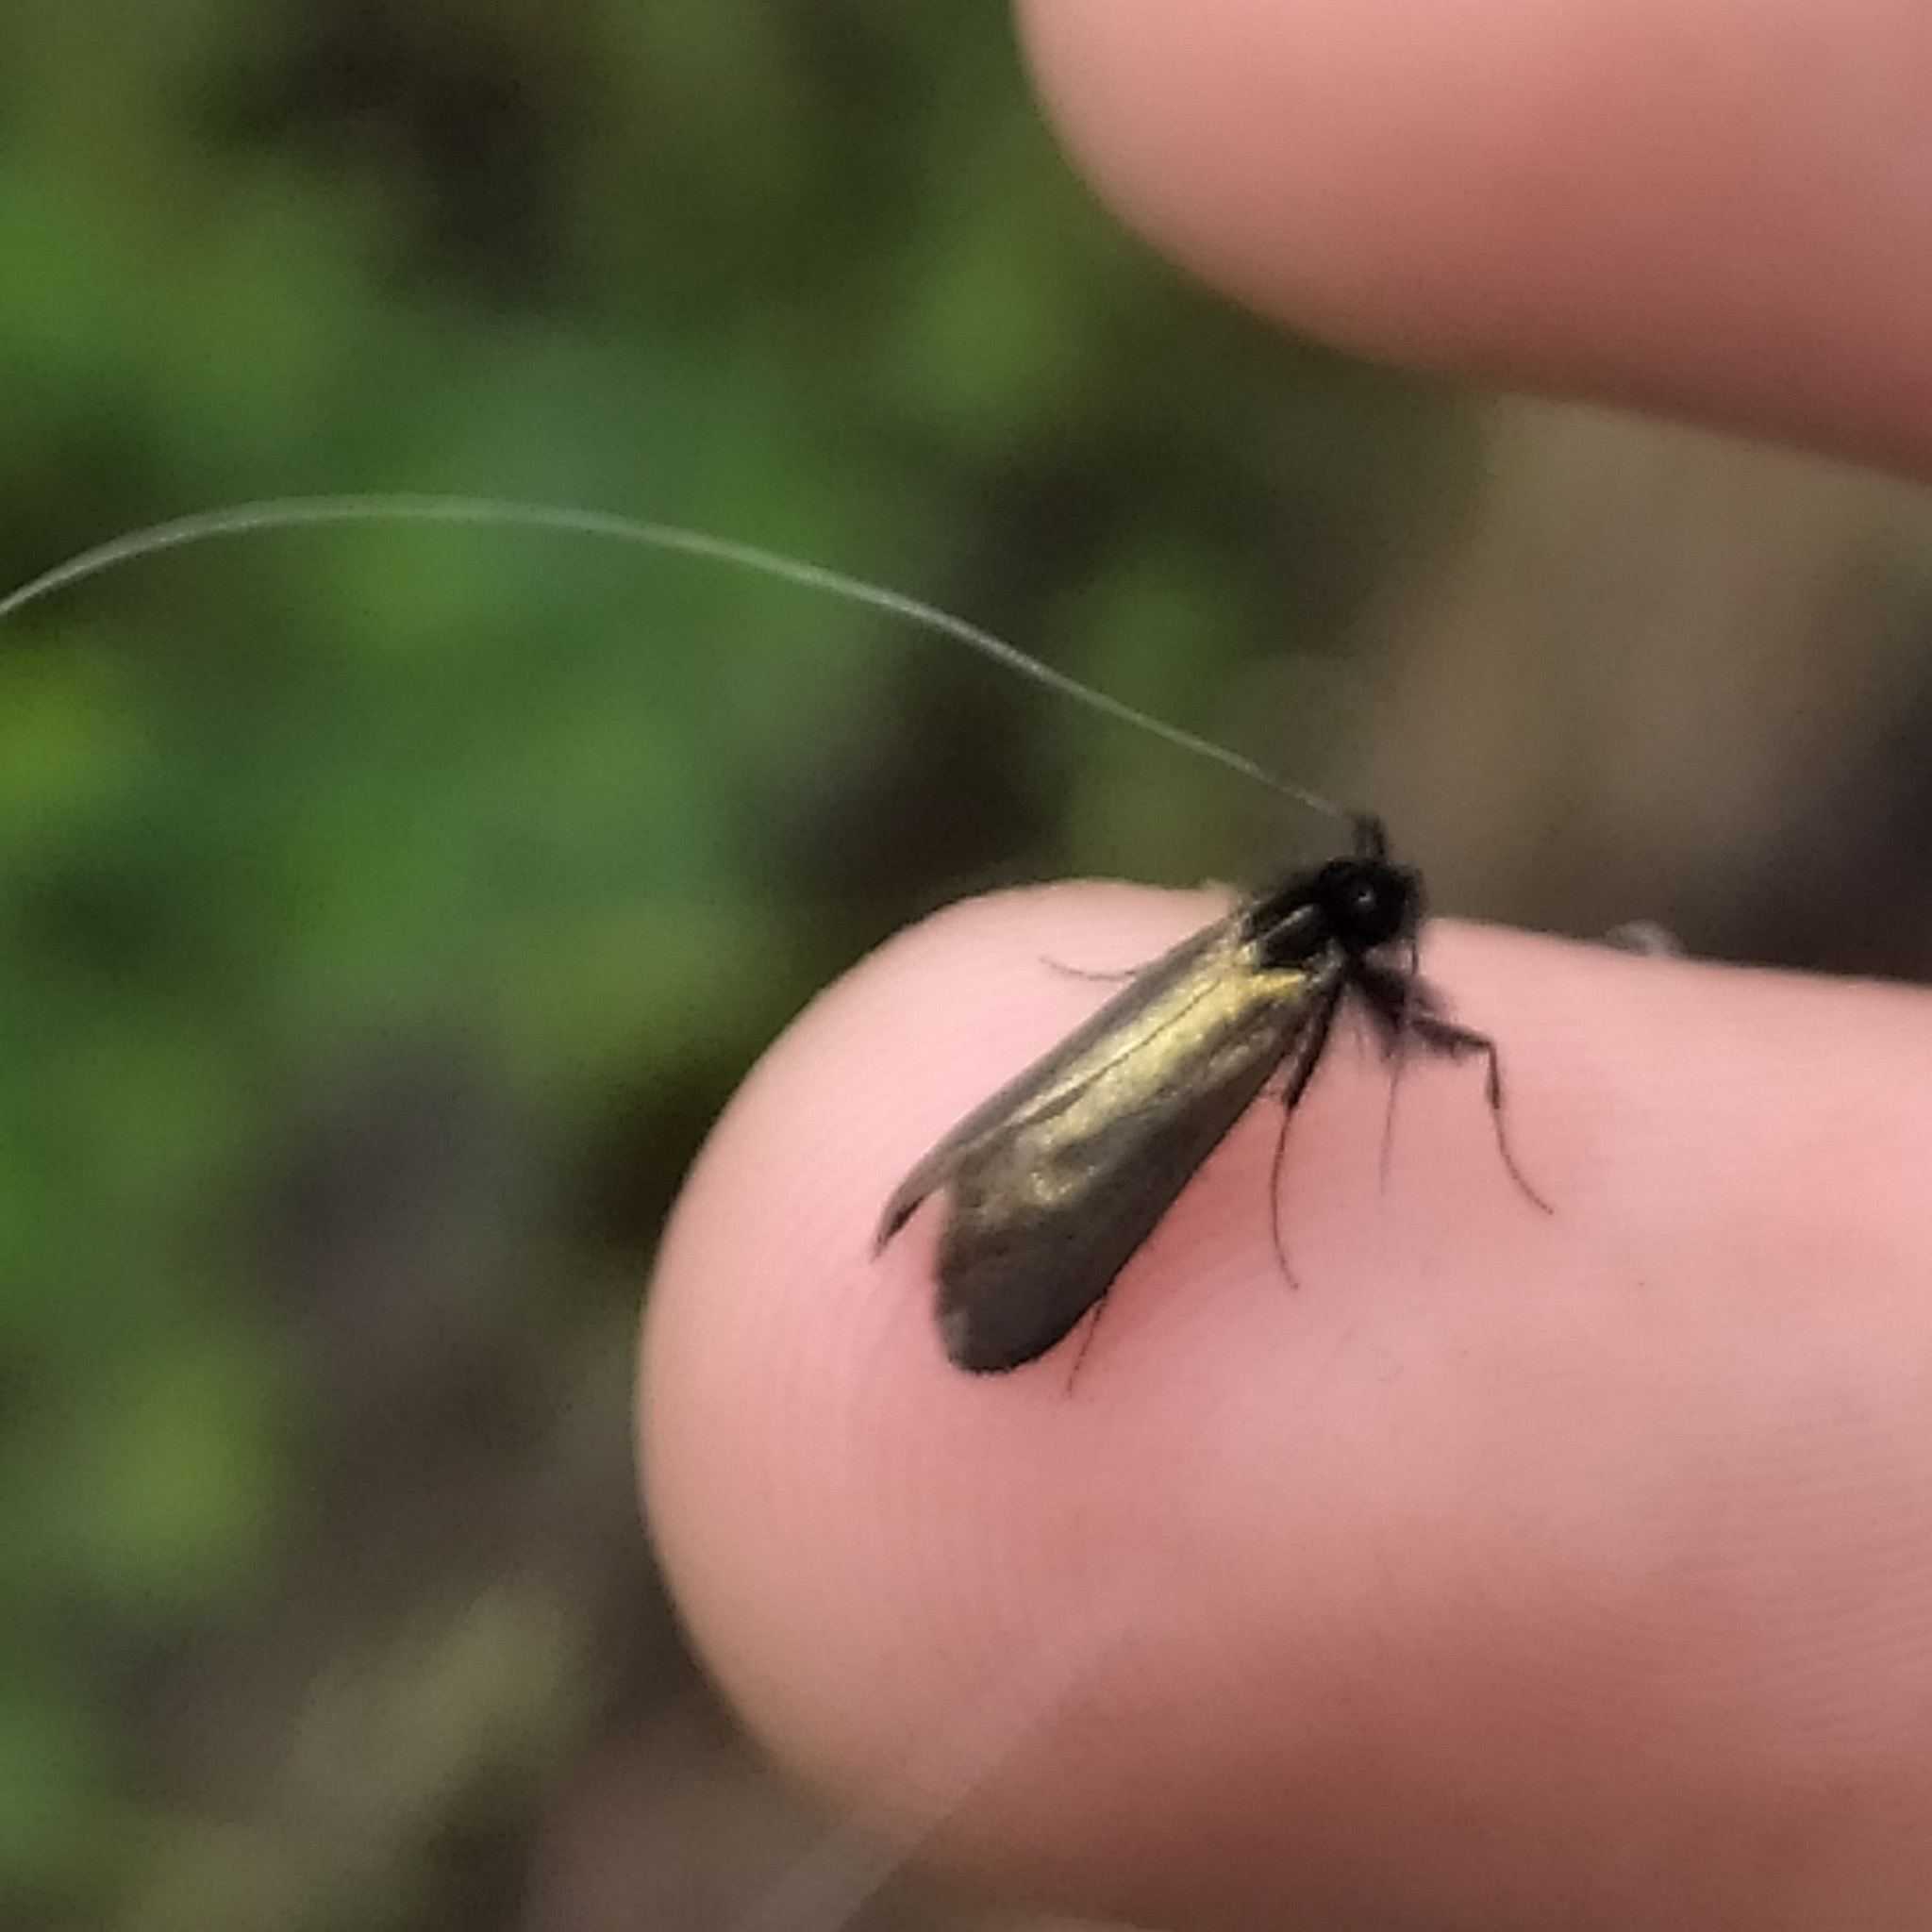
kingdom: Animalia
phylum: Arthropoda
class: Insecta
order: Lepidoptera
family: Adelidae
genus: Adela
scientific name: Adela viridella
